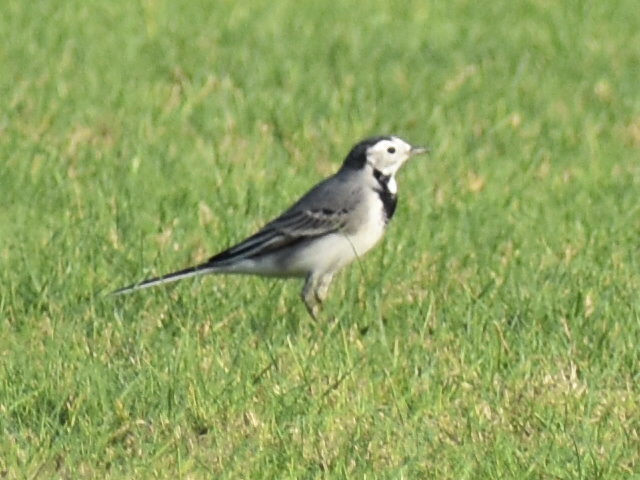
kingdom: Animalia
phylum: Chordata
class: Aves
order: Passeriformes
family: Motacillidae
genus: Motacilla
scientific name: Motacilla alba
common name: White wagtail
